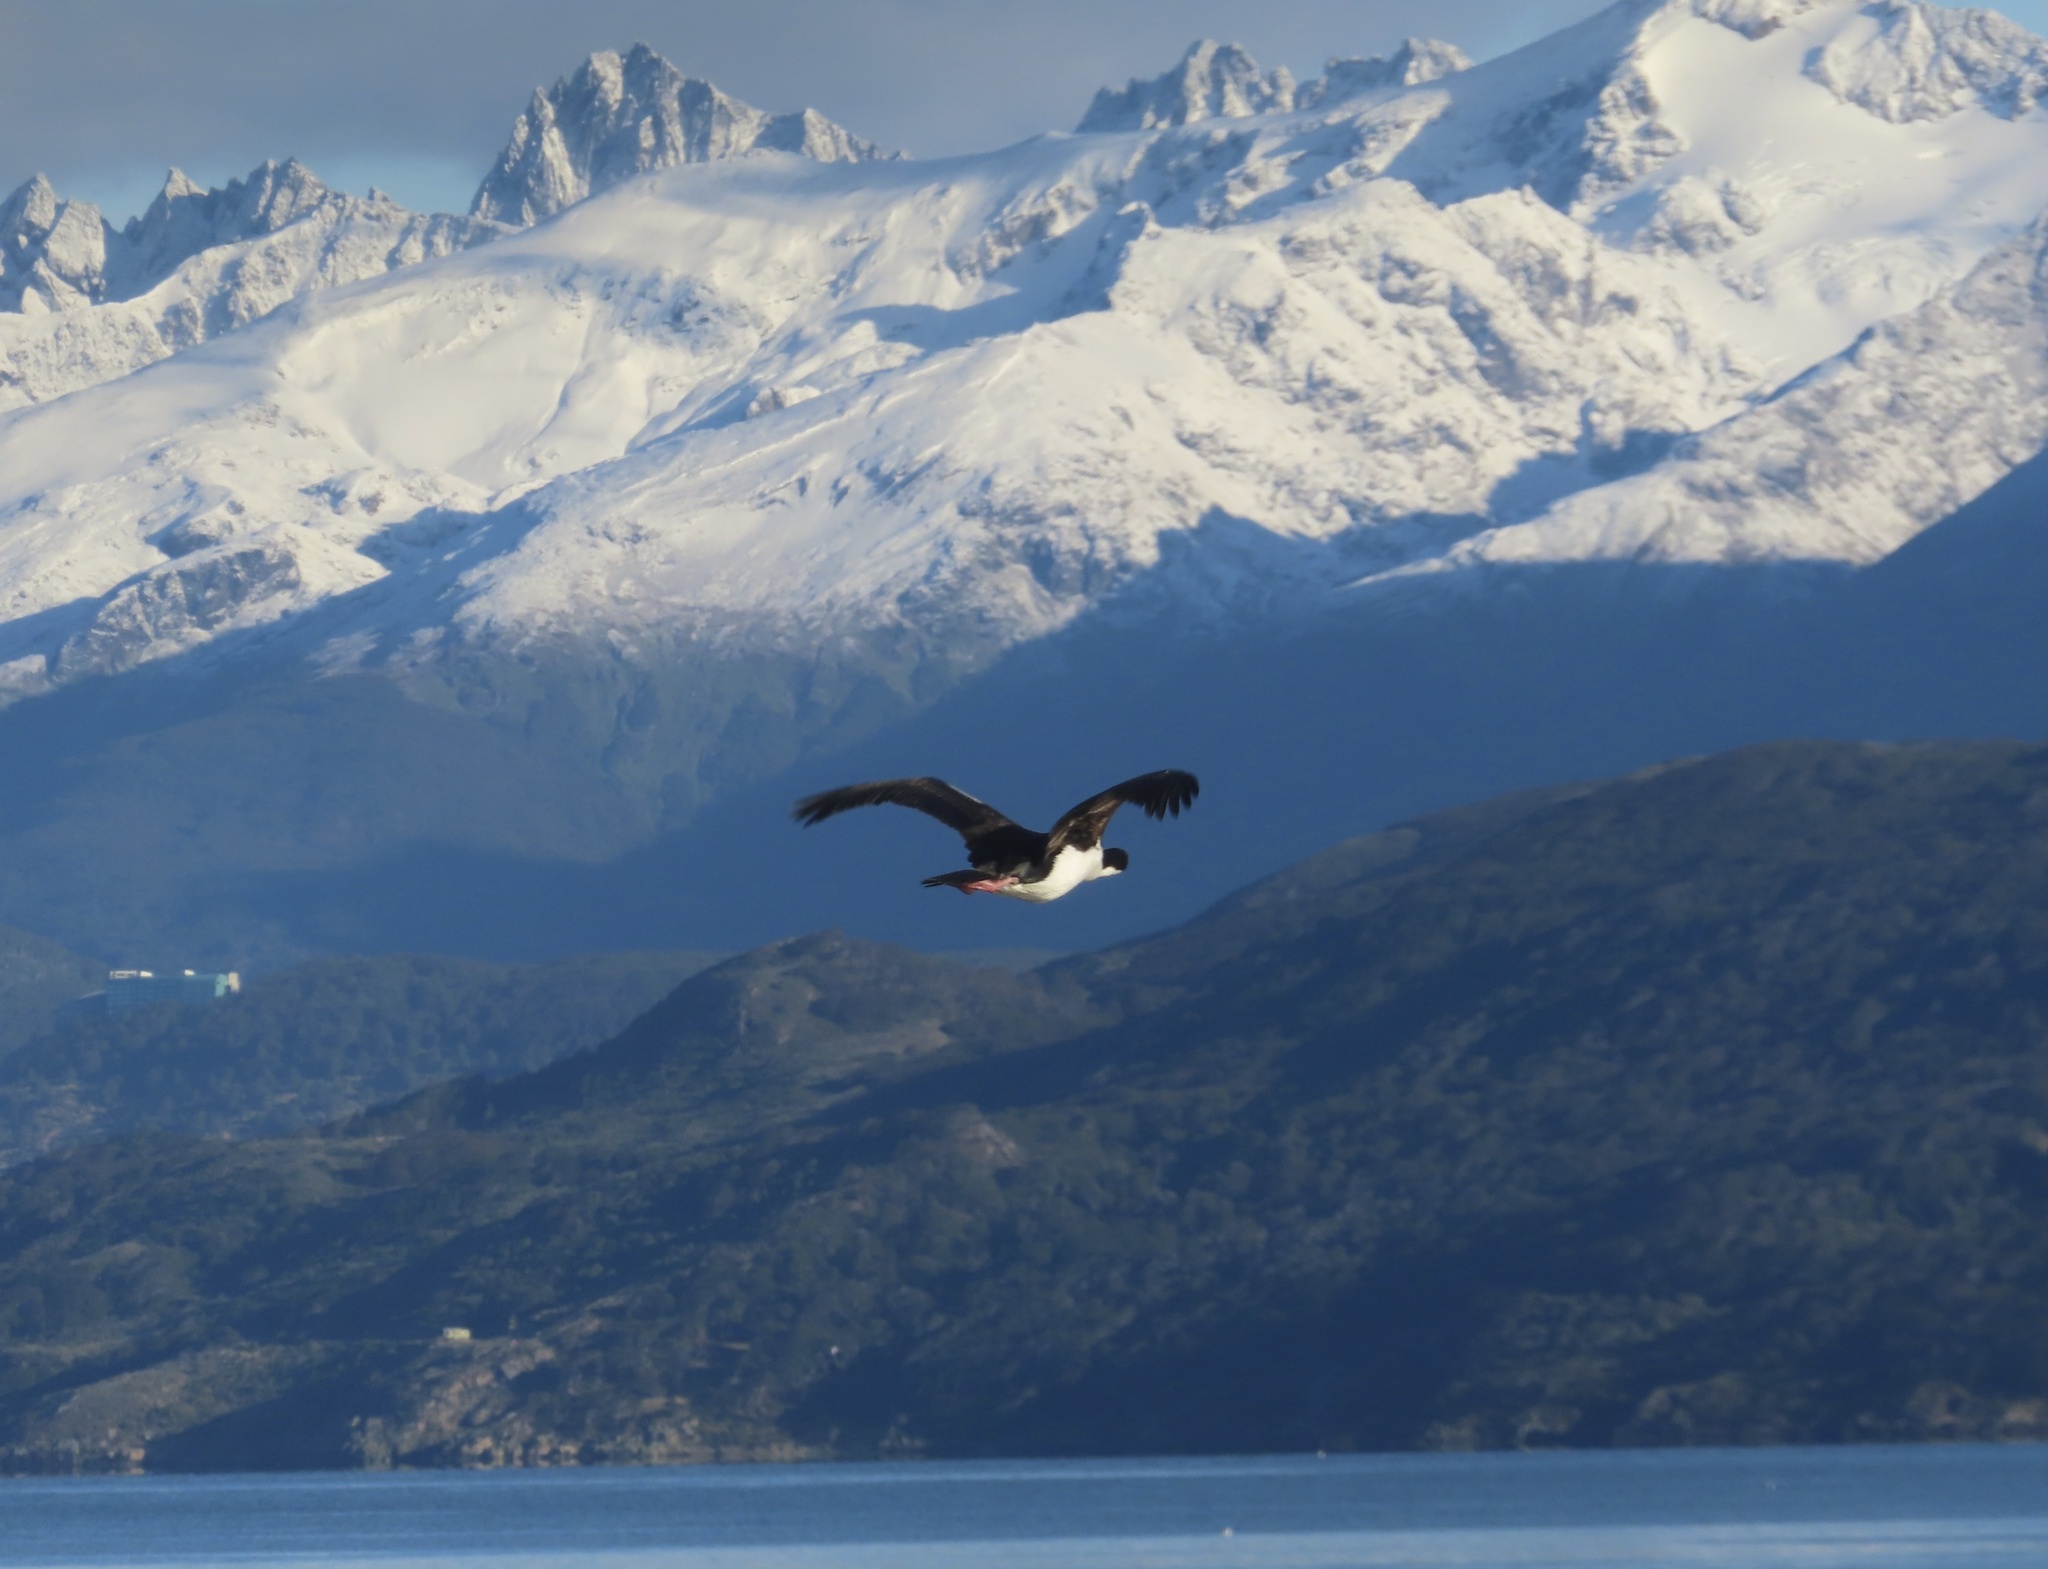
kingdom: Animalia
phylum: Chordata
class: Aves
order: Suliformes
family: Phalacrocoracidae
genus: Leucocarbo
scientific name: Leucocarbo atriceps
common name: Imperial shag
